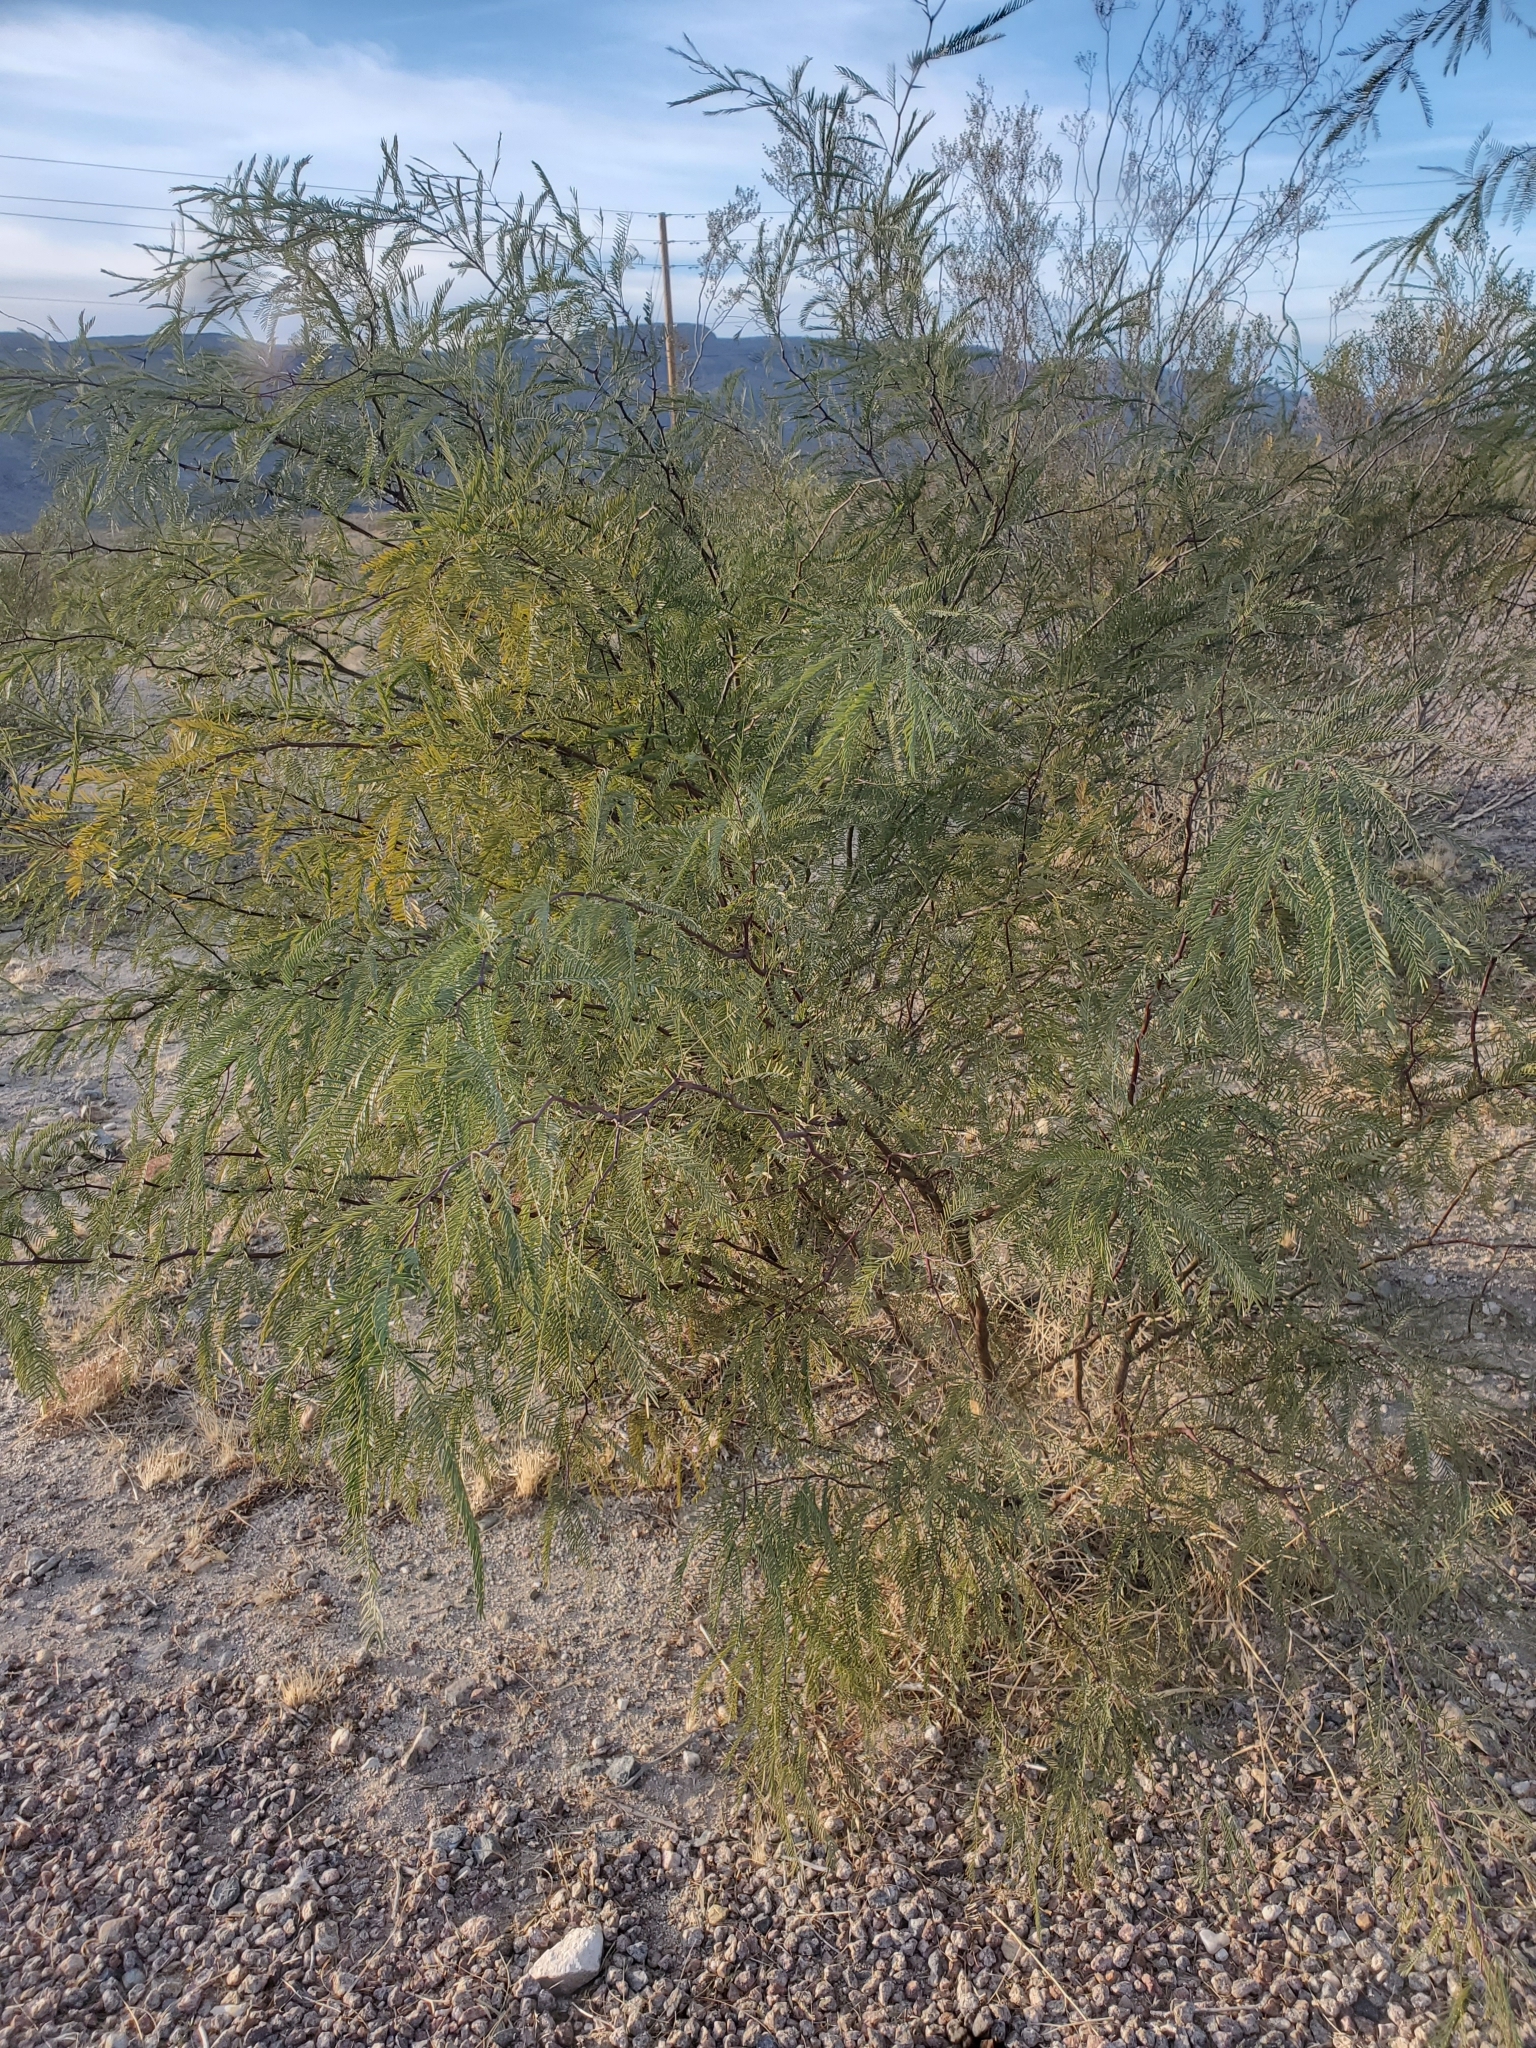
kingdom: Plantae
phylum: Tracheophyta
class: Magnoliopsida
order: Fabales
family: Fabaceae
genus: Prosopis
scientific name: Prosopis chilensis
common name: Chilean algarrobo
